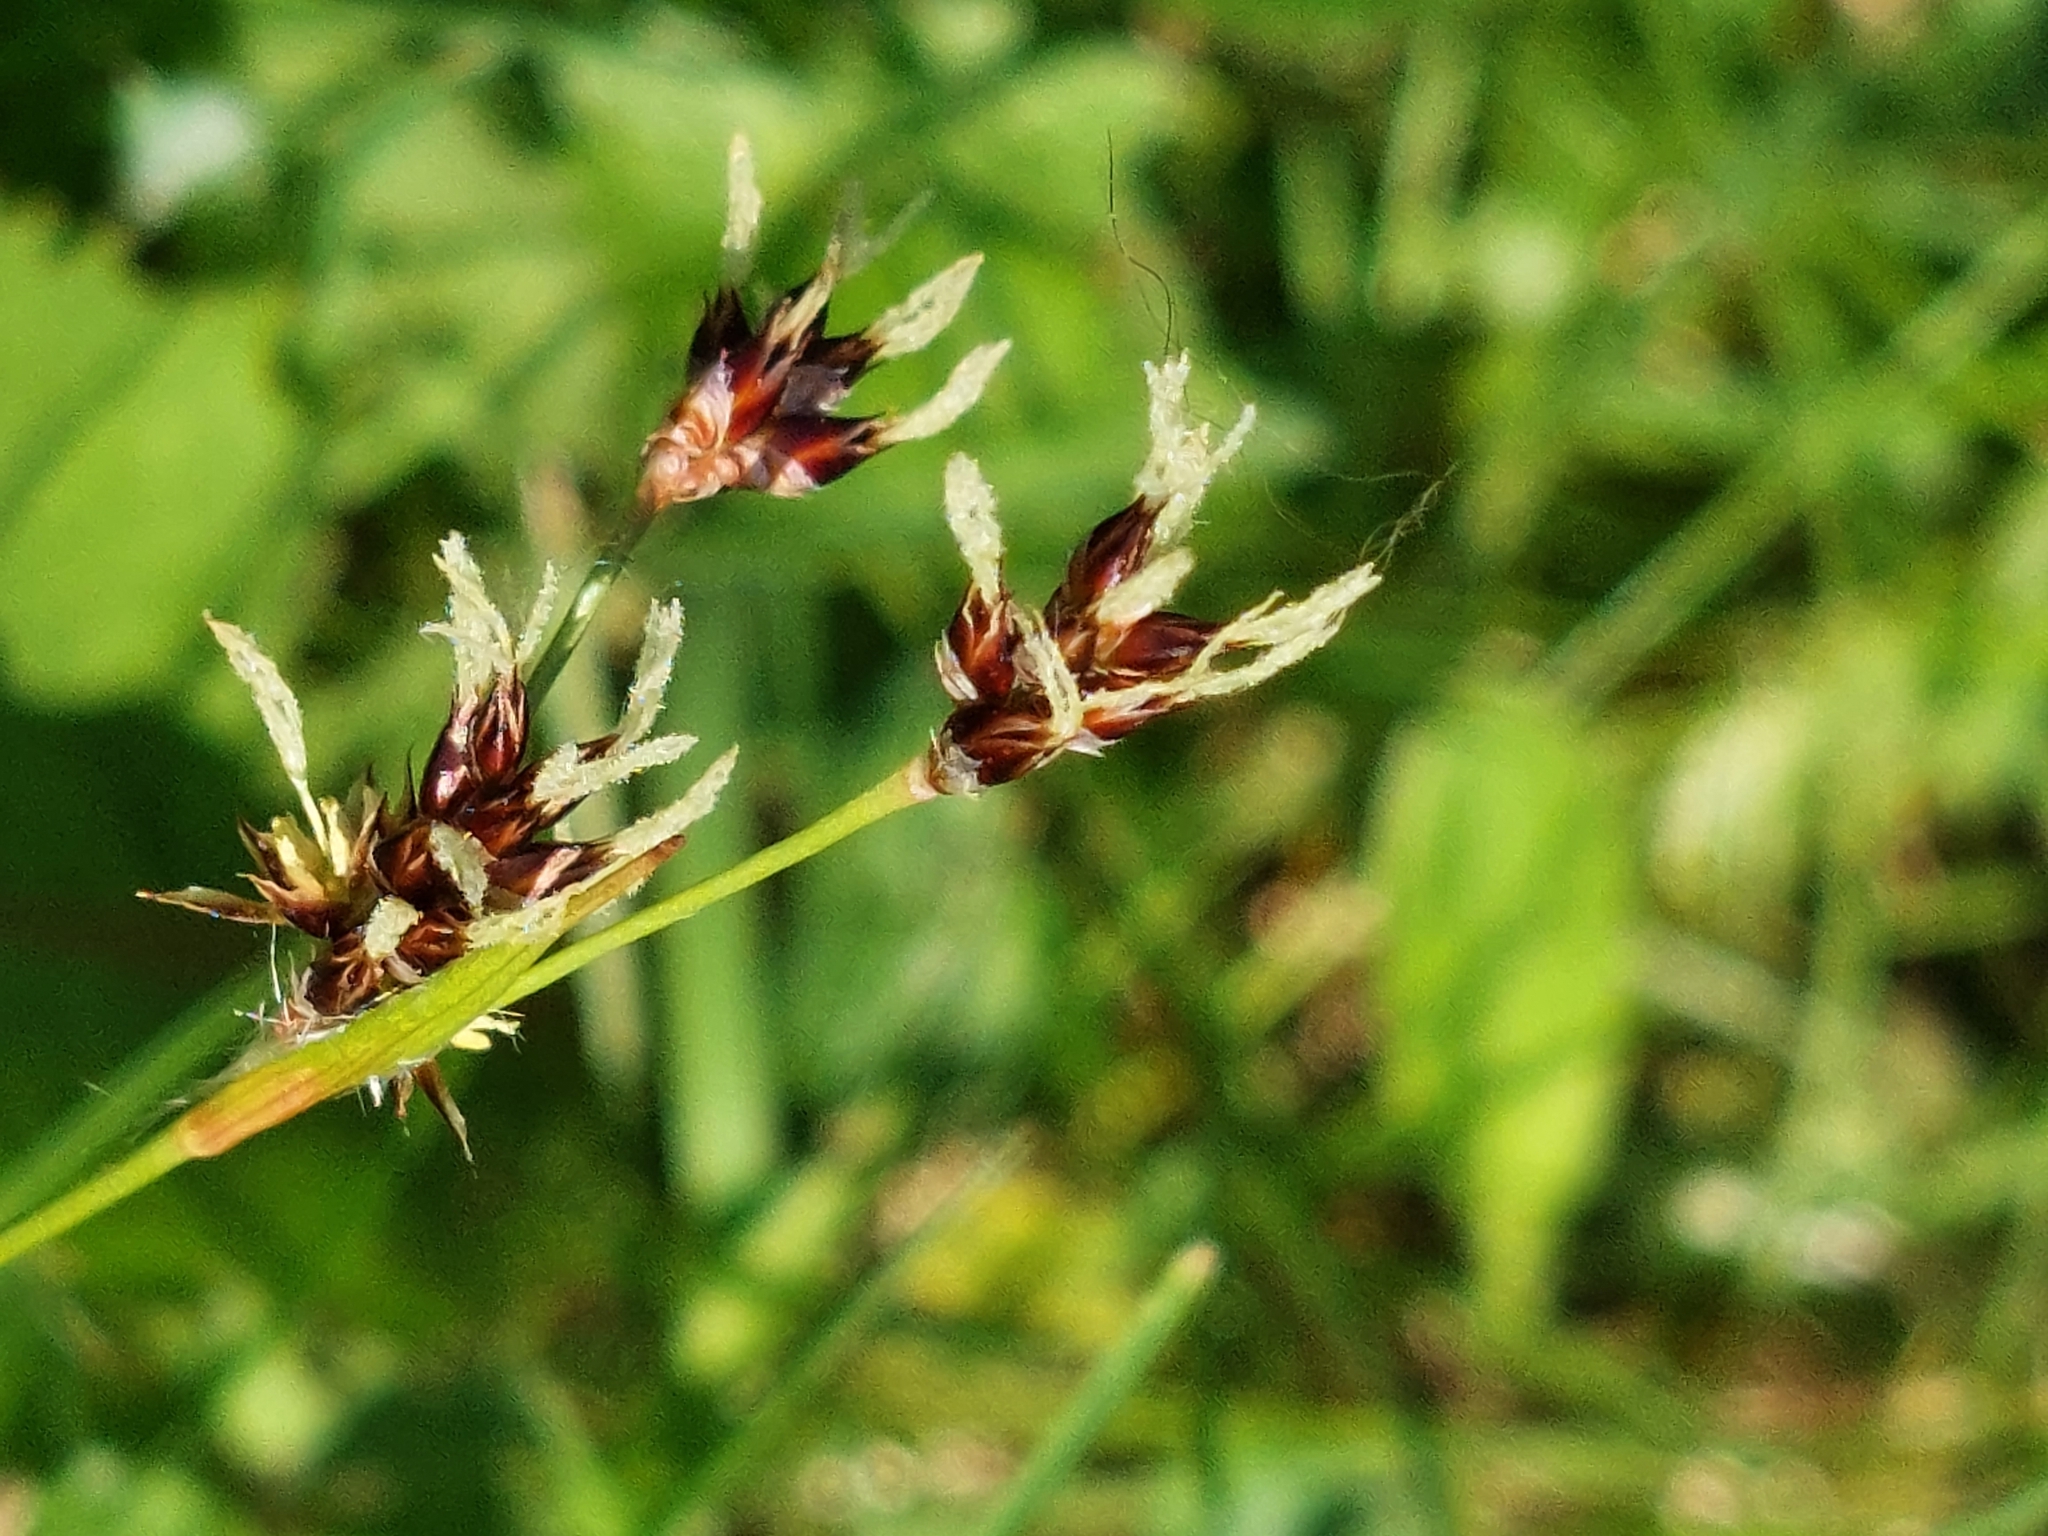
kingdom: Plantae
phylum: Tracheophyta
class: Liliopsida
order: Poales
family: Juncaceae
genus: Luzula
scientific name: Luzula campestris
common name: Field wood-rush
